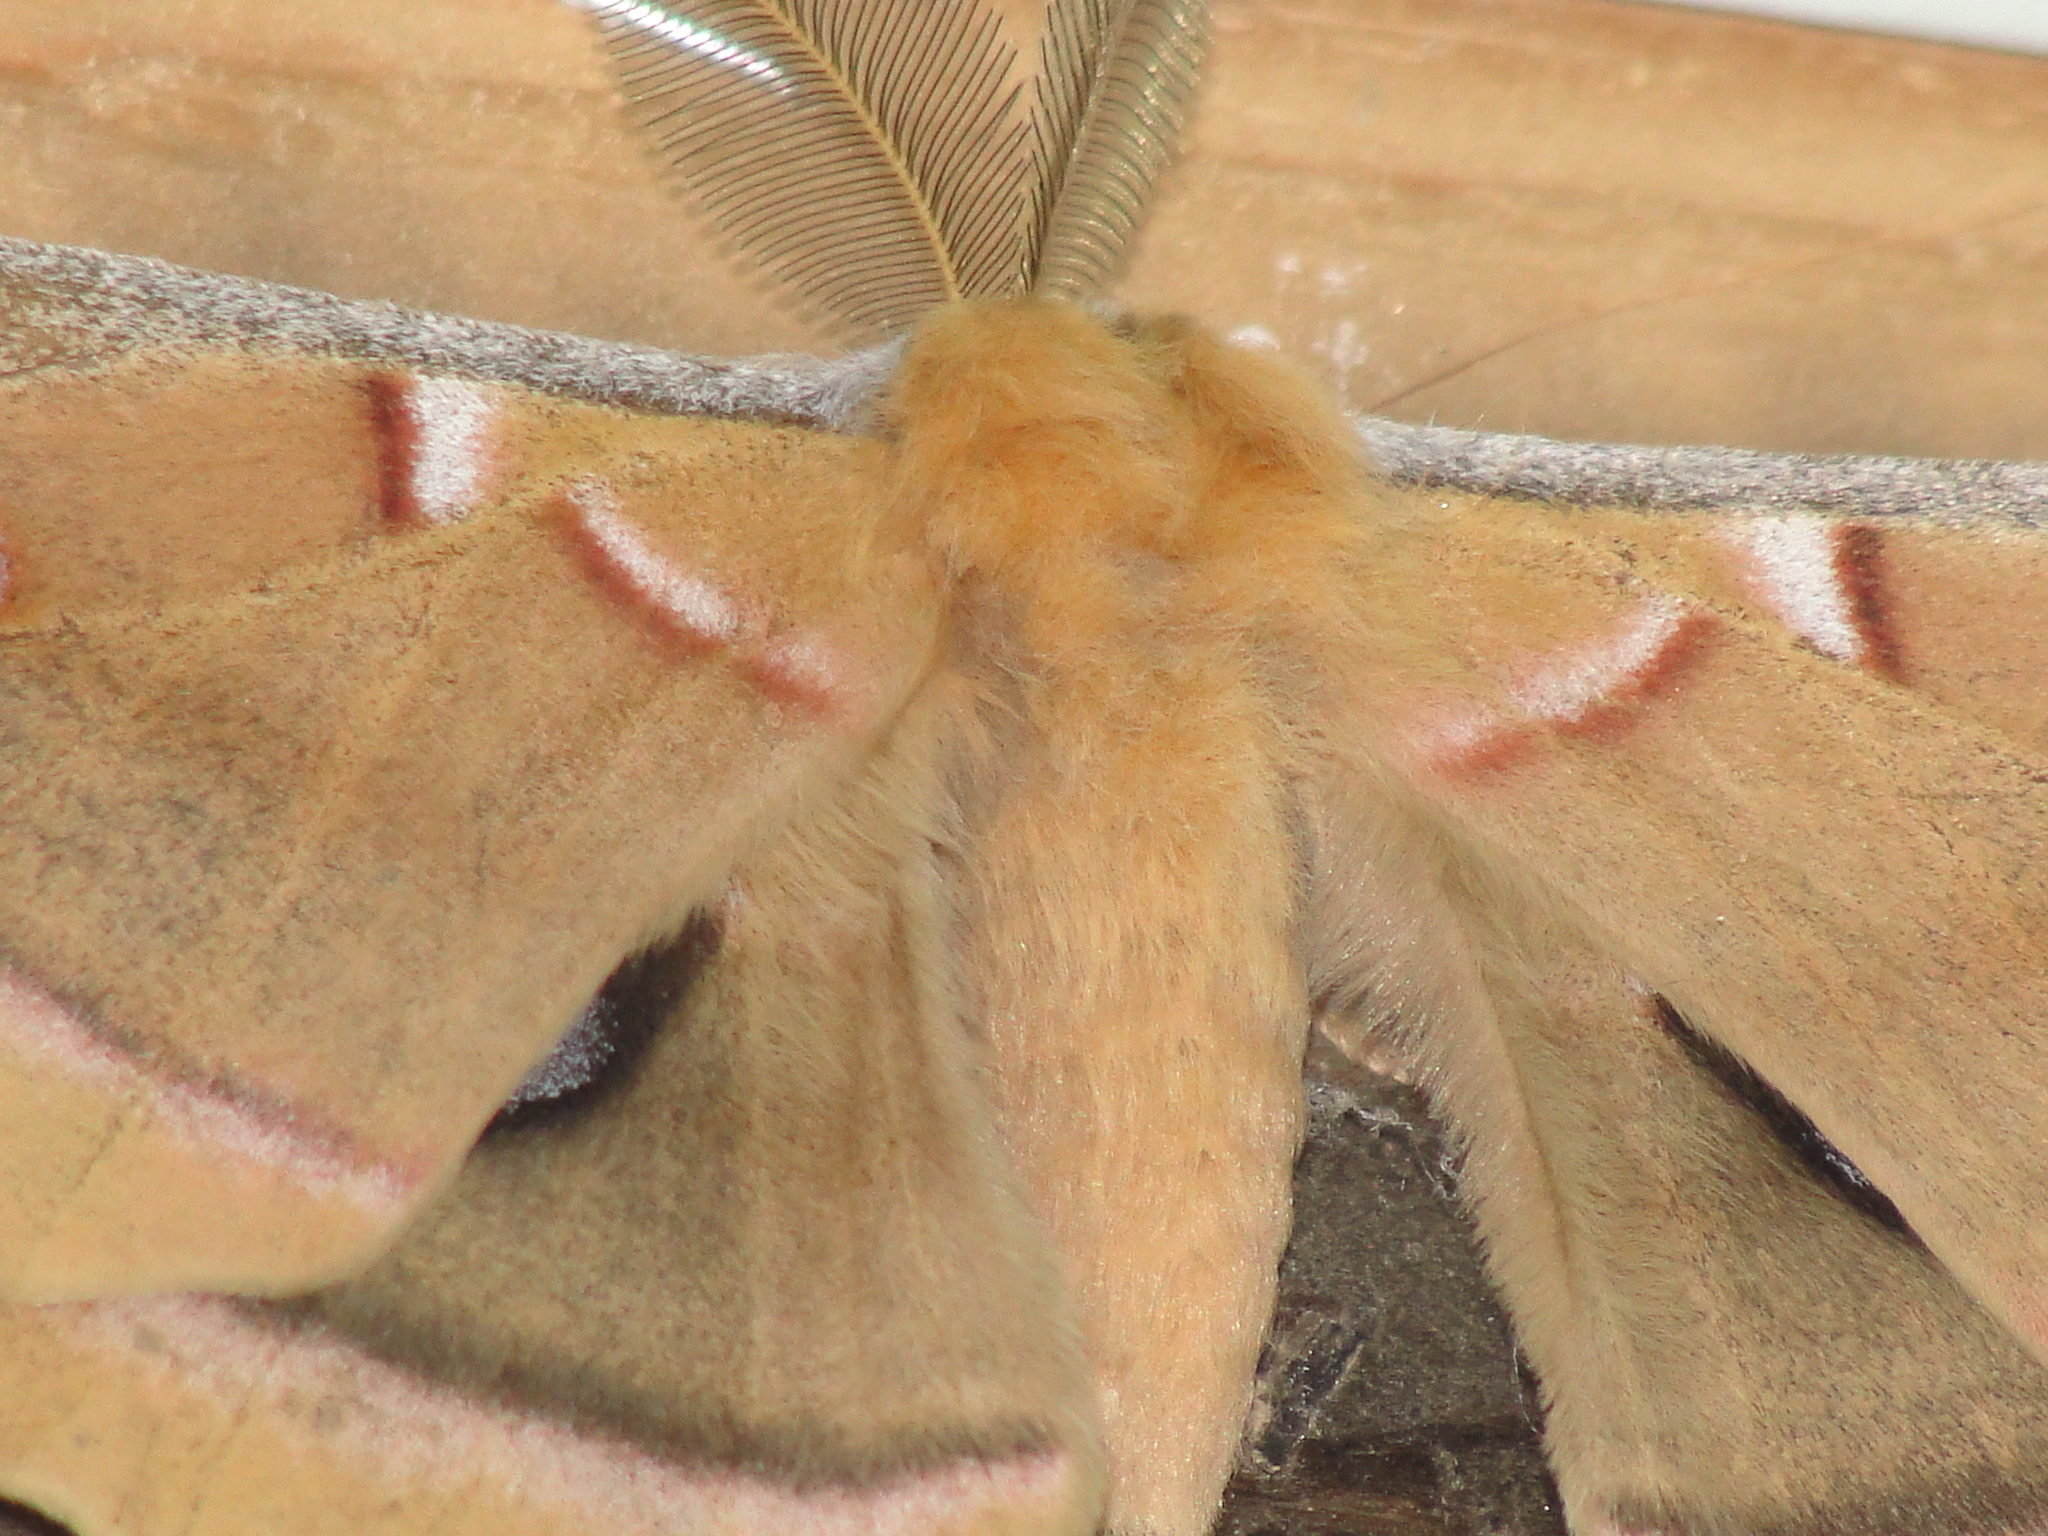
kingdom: Animalia
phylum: Arthropoda
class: Insecta
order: Lepidoptera
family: Saturniidae
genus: Antheraea
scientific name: Antheraea polyphemus
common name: Polyphemus moth
